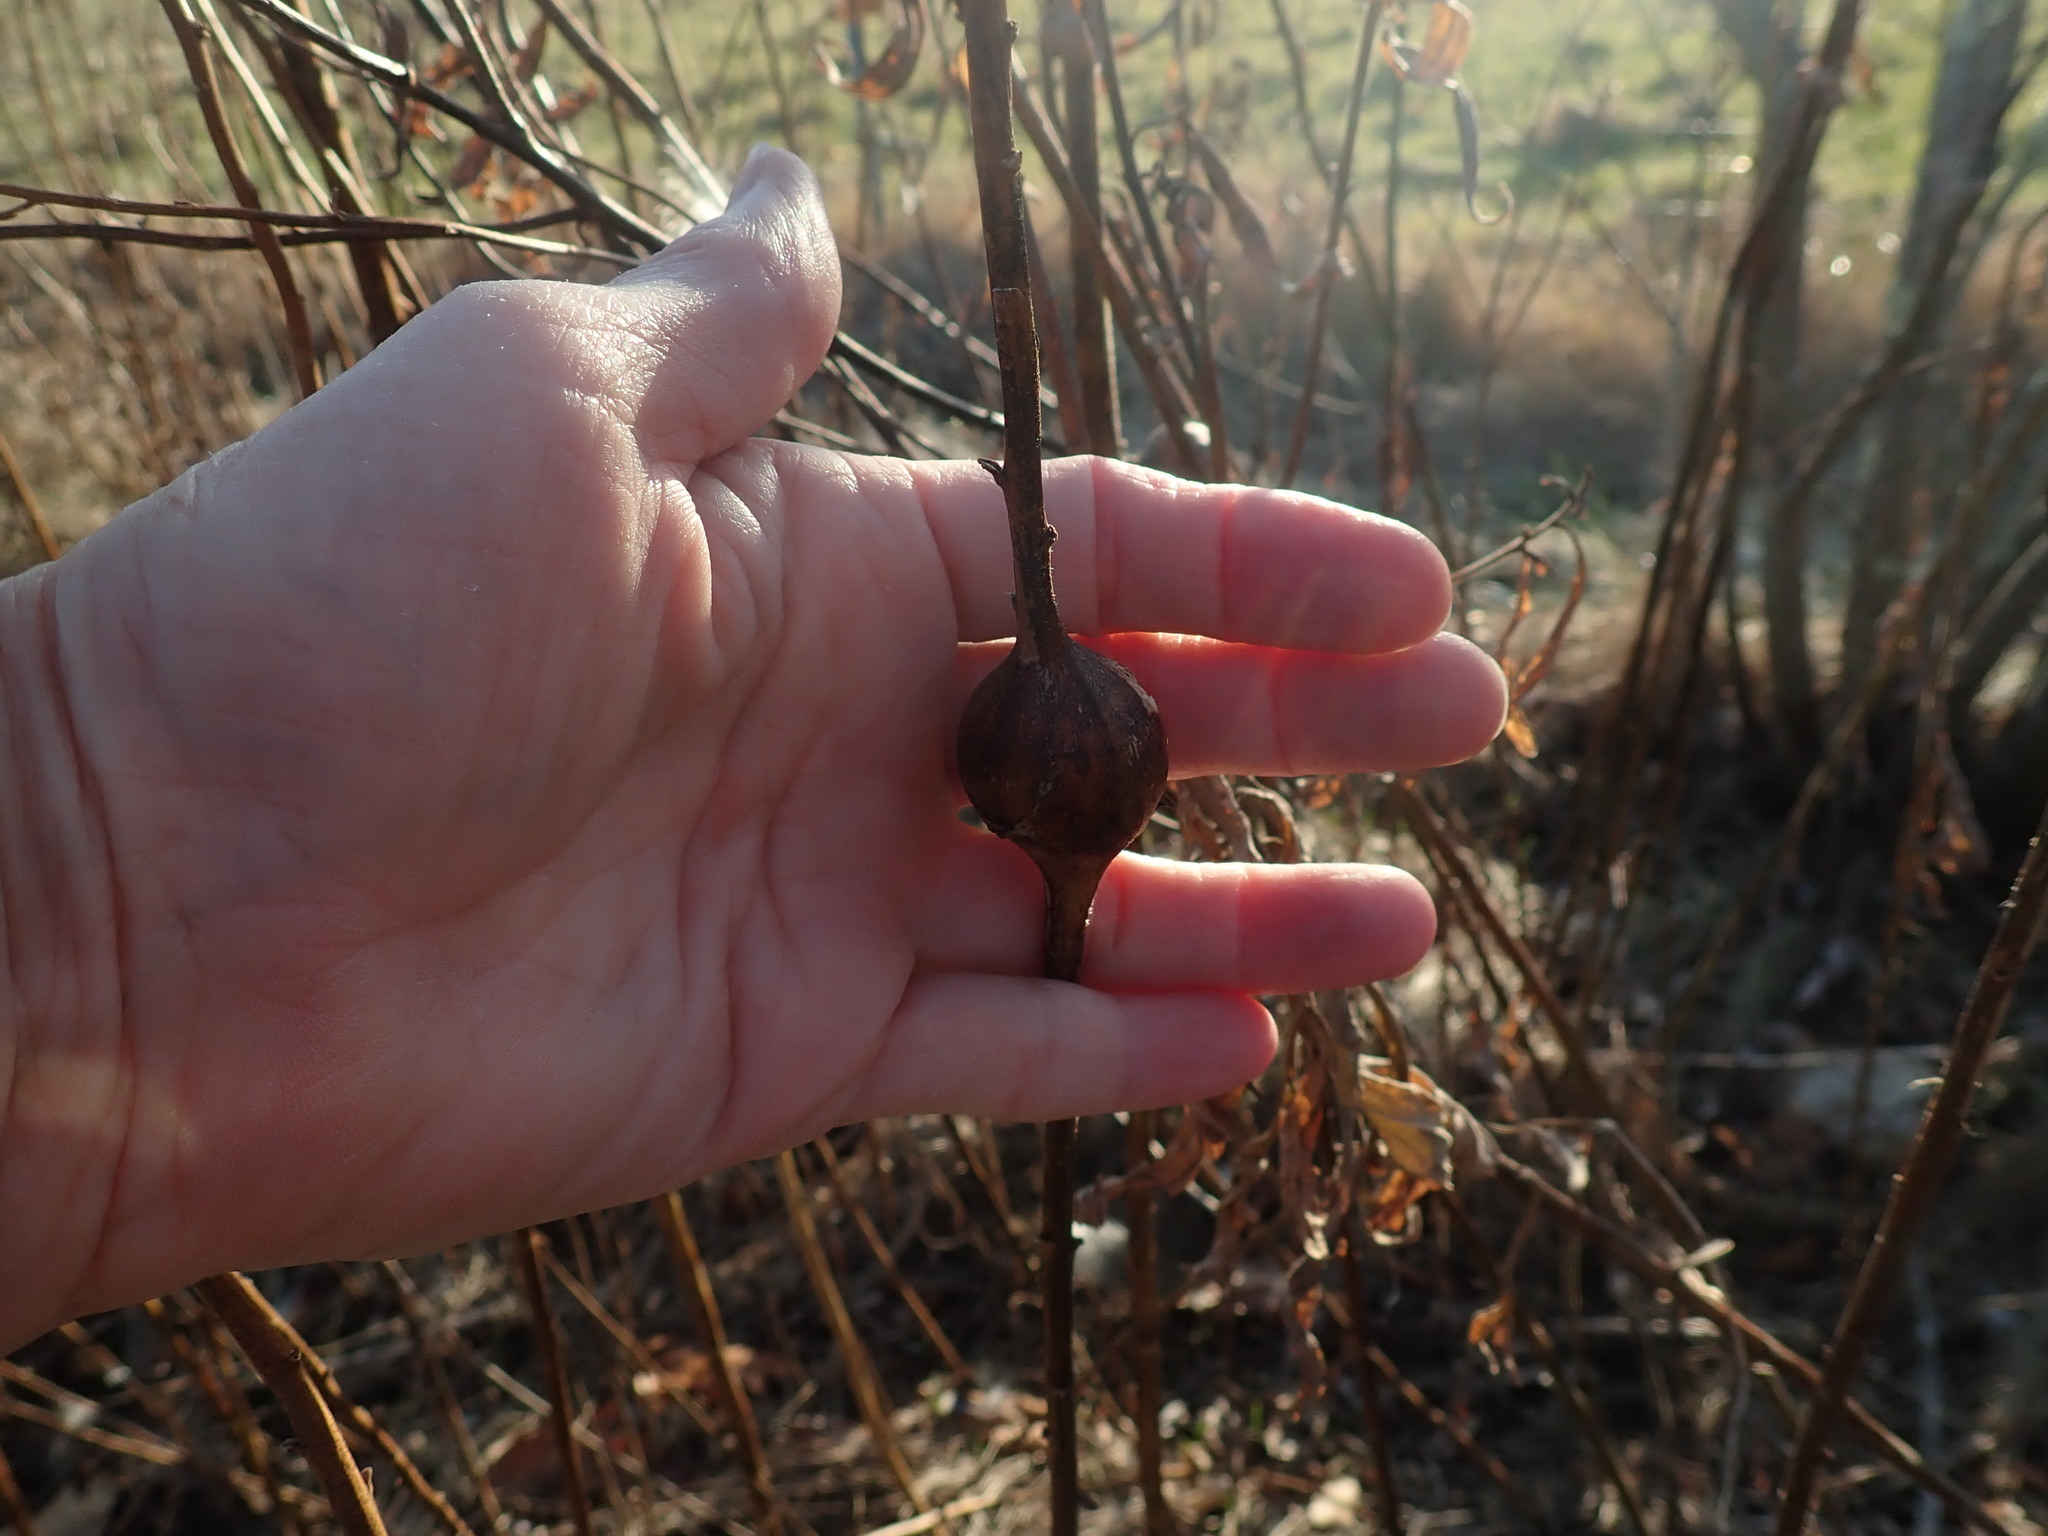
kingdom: Animalia
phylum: Arthropoda
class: Insecta
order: Diptera
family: Tephritidae
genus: Eurosta
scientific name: Eurosta solidaginis
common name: Goldenrod gall fly
